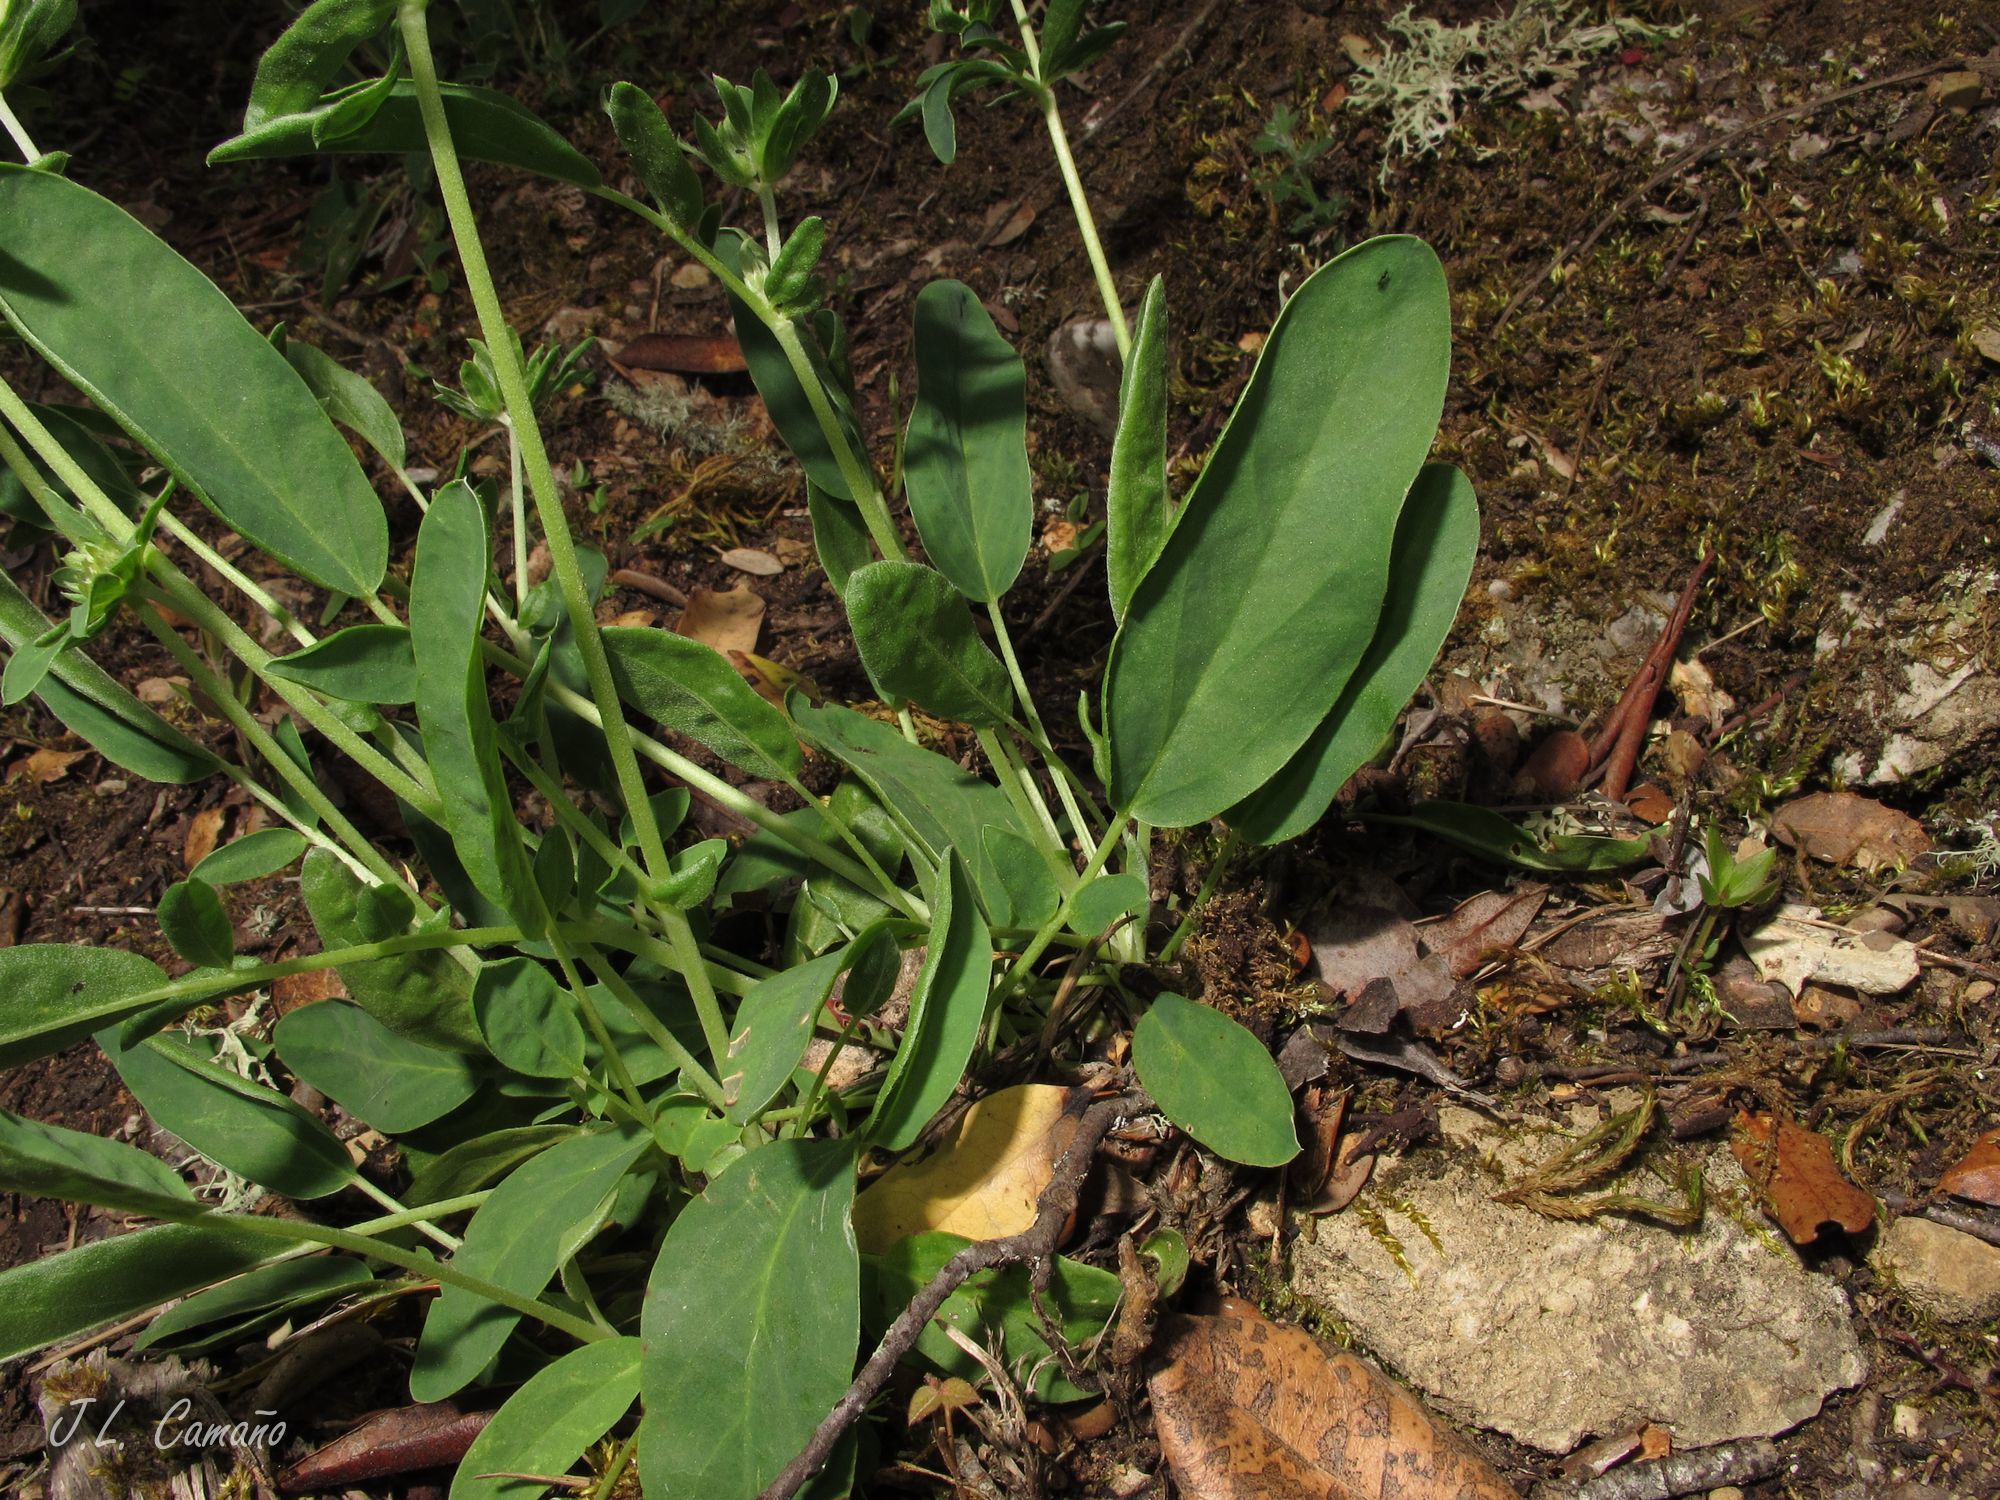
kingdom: Plantae
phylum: Tracheophyta
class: Magnoliopsida
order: Fabales
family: Fabaceae
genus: Anthyllis
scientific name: Anthyllis vulneraria
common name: Kidney vetch
